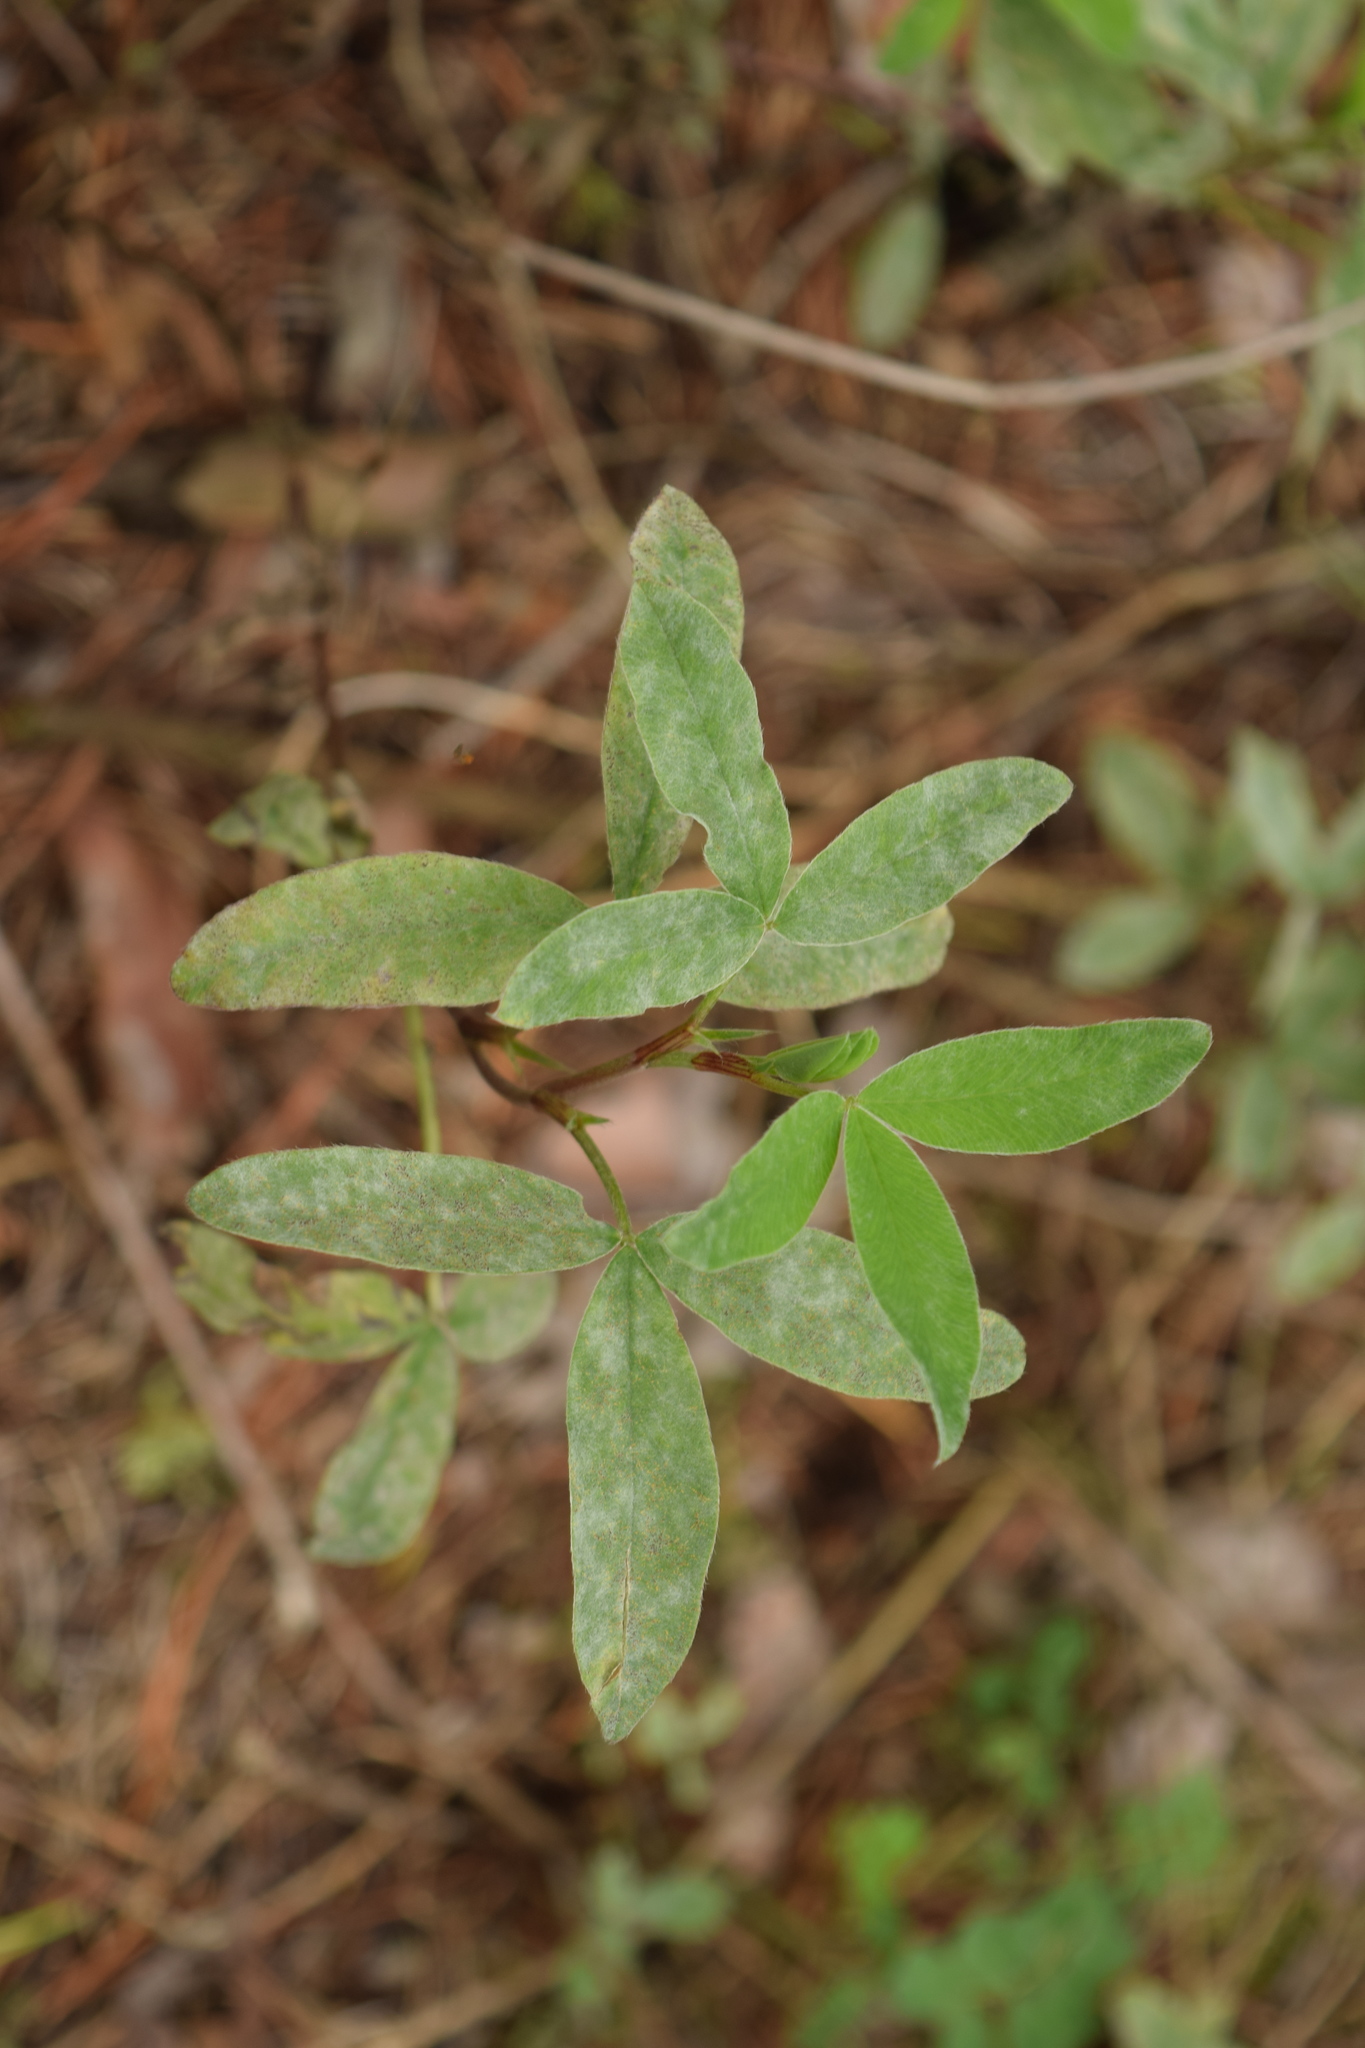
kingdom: Plantae
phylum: Tracheophyta
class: Magnoliopsida
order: Fabales
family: Fabaceae
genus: Trifolium
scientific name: Trifolium medium
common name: Zigzag clover
